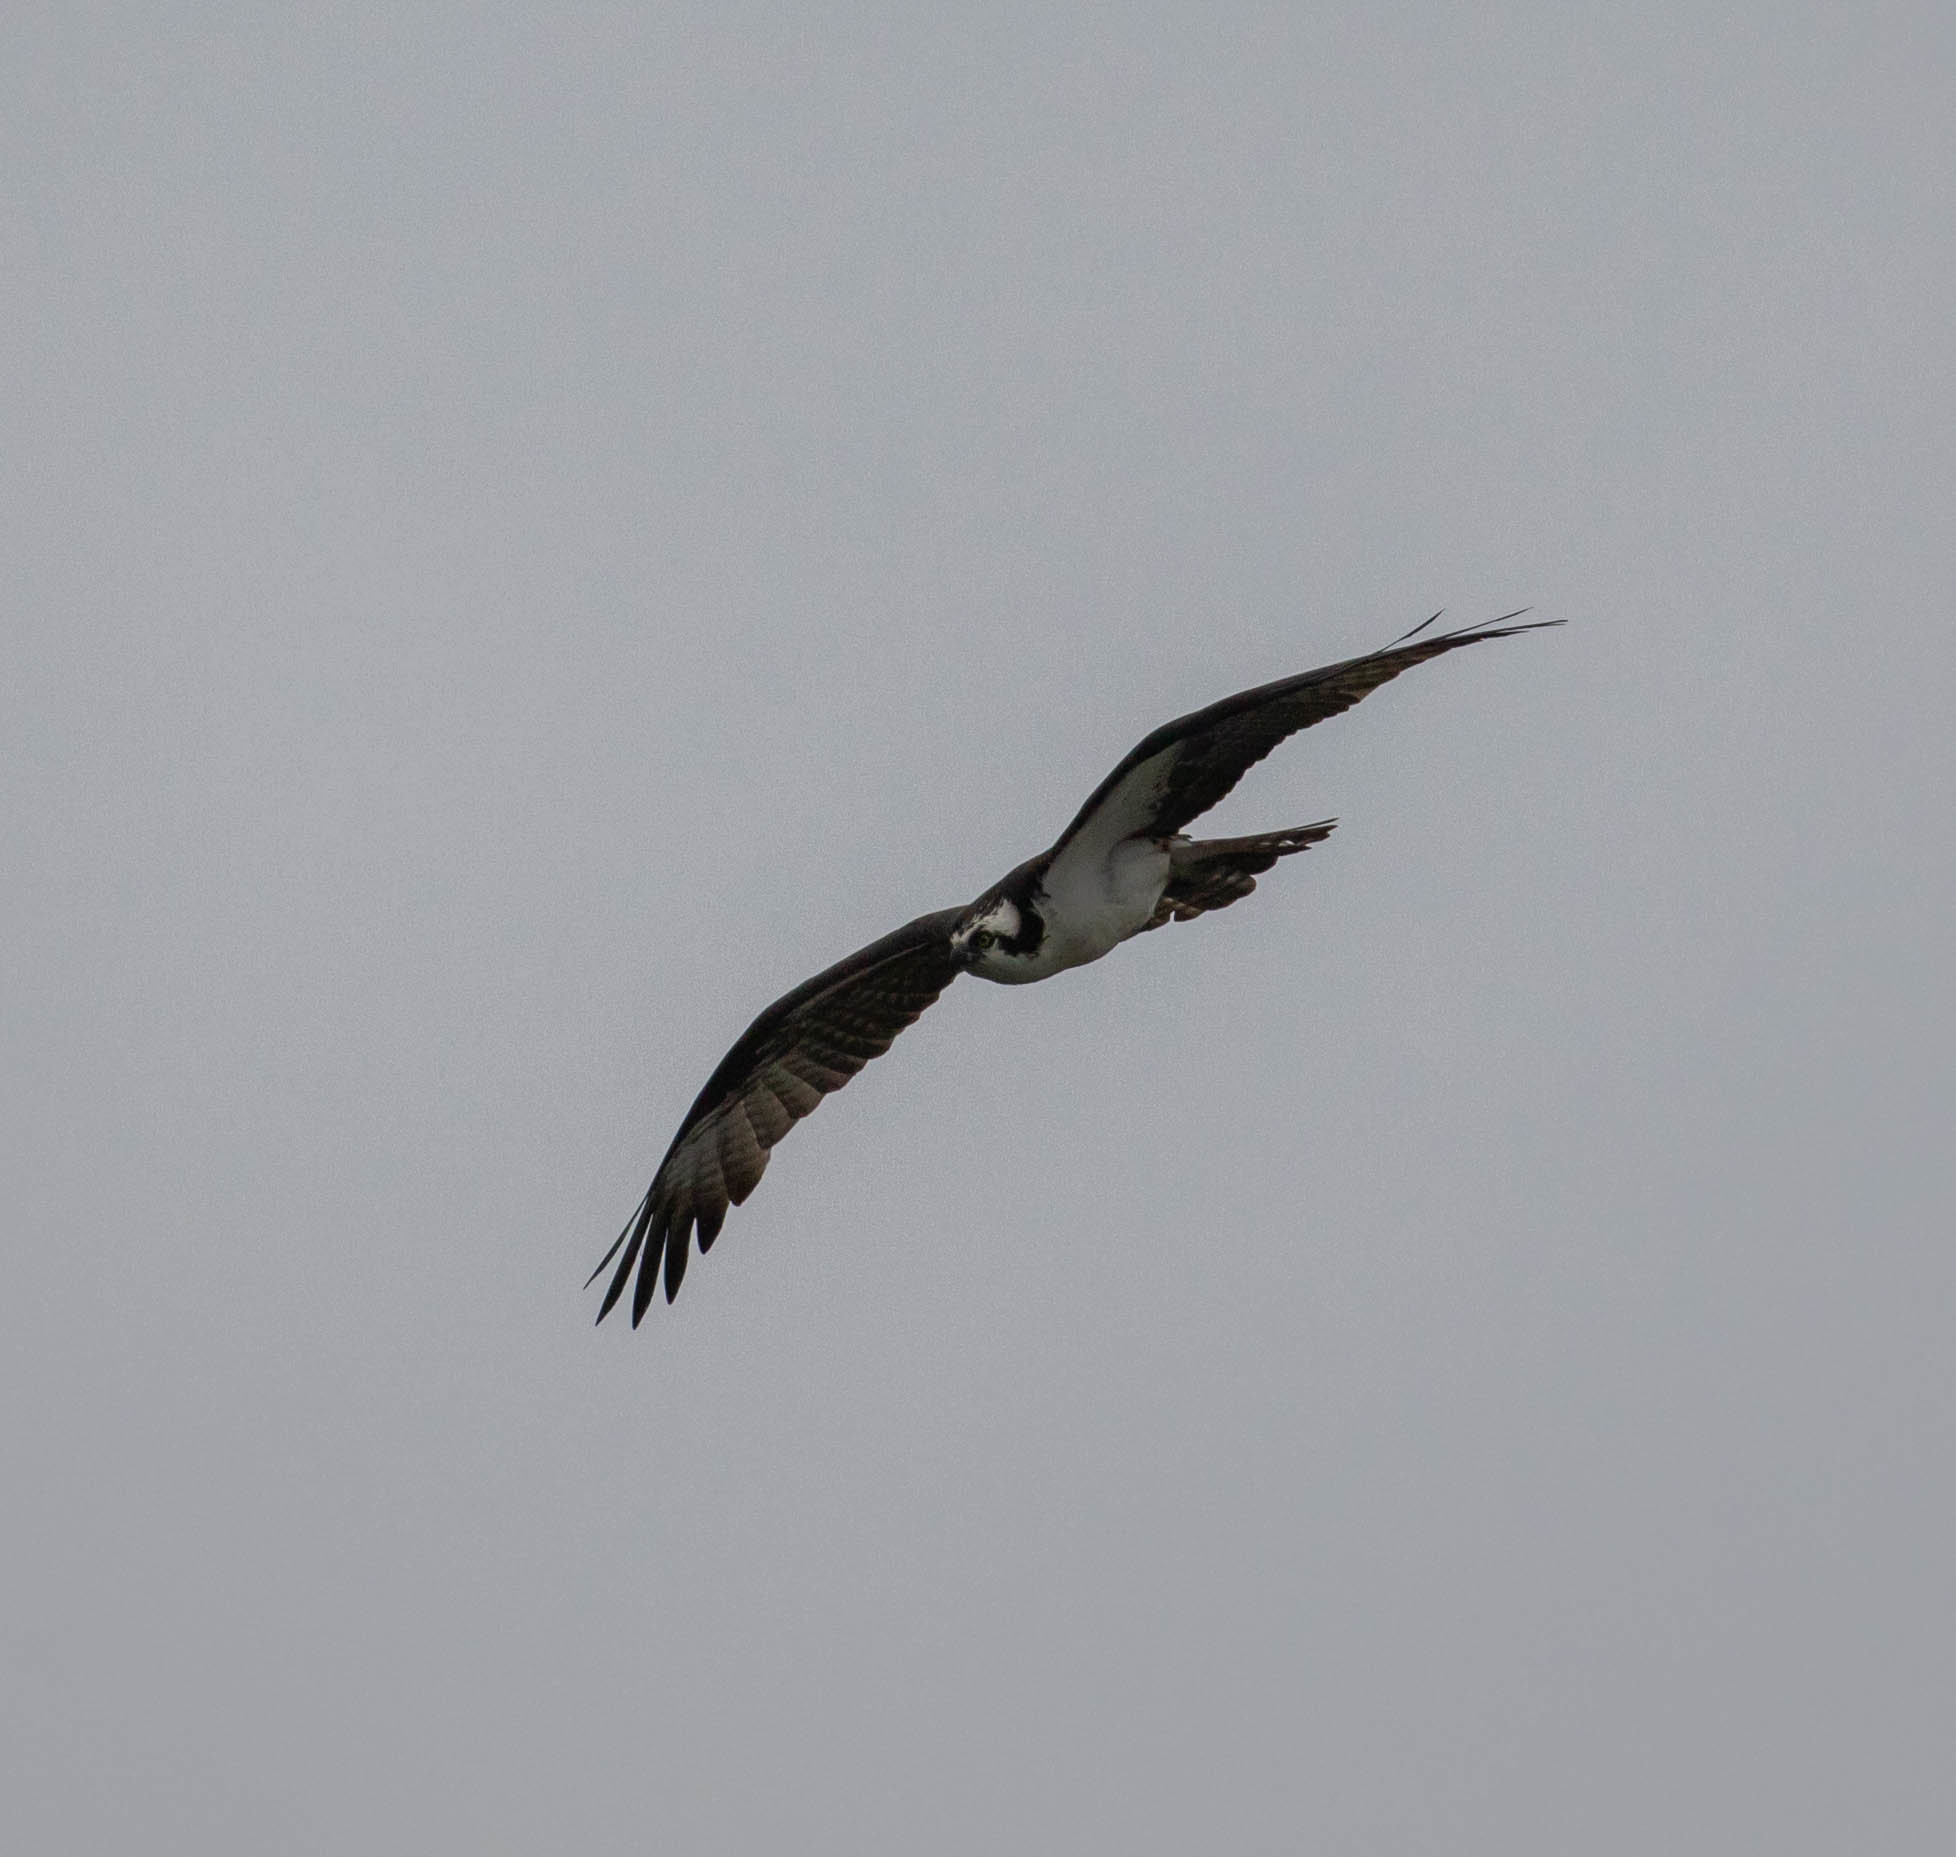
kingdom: Animalia
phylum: Chordata
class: Aves
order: Accipitriformes
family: Pandionidae
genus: Pandion
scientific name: Pandion haliaetus
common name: Osprey
